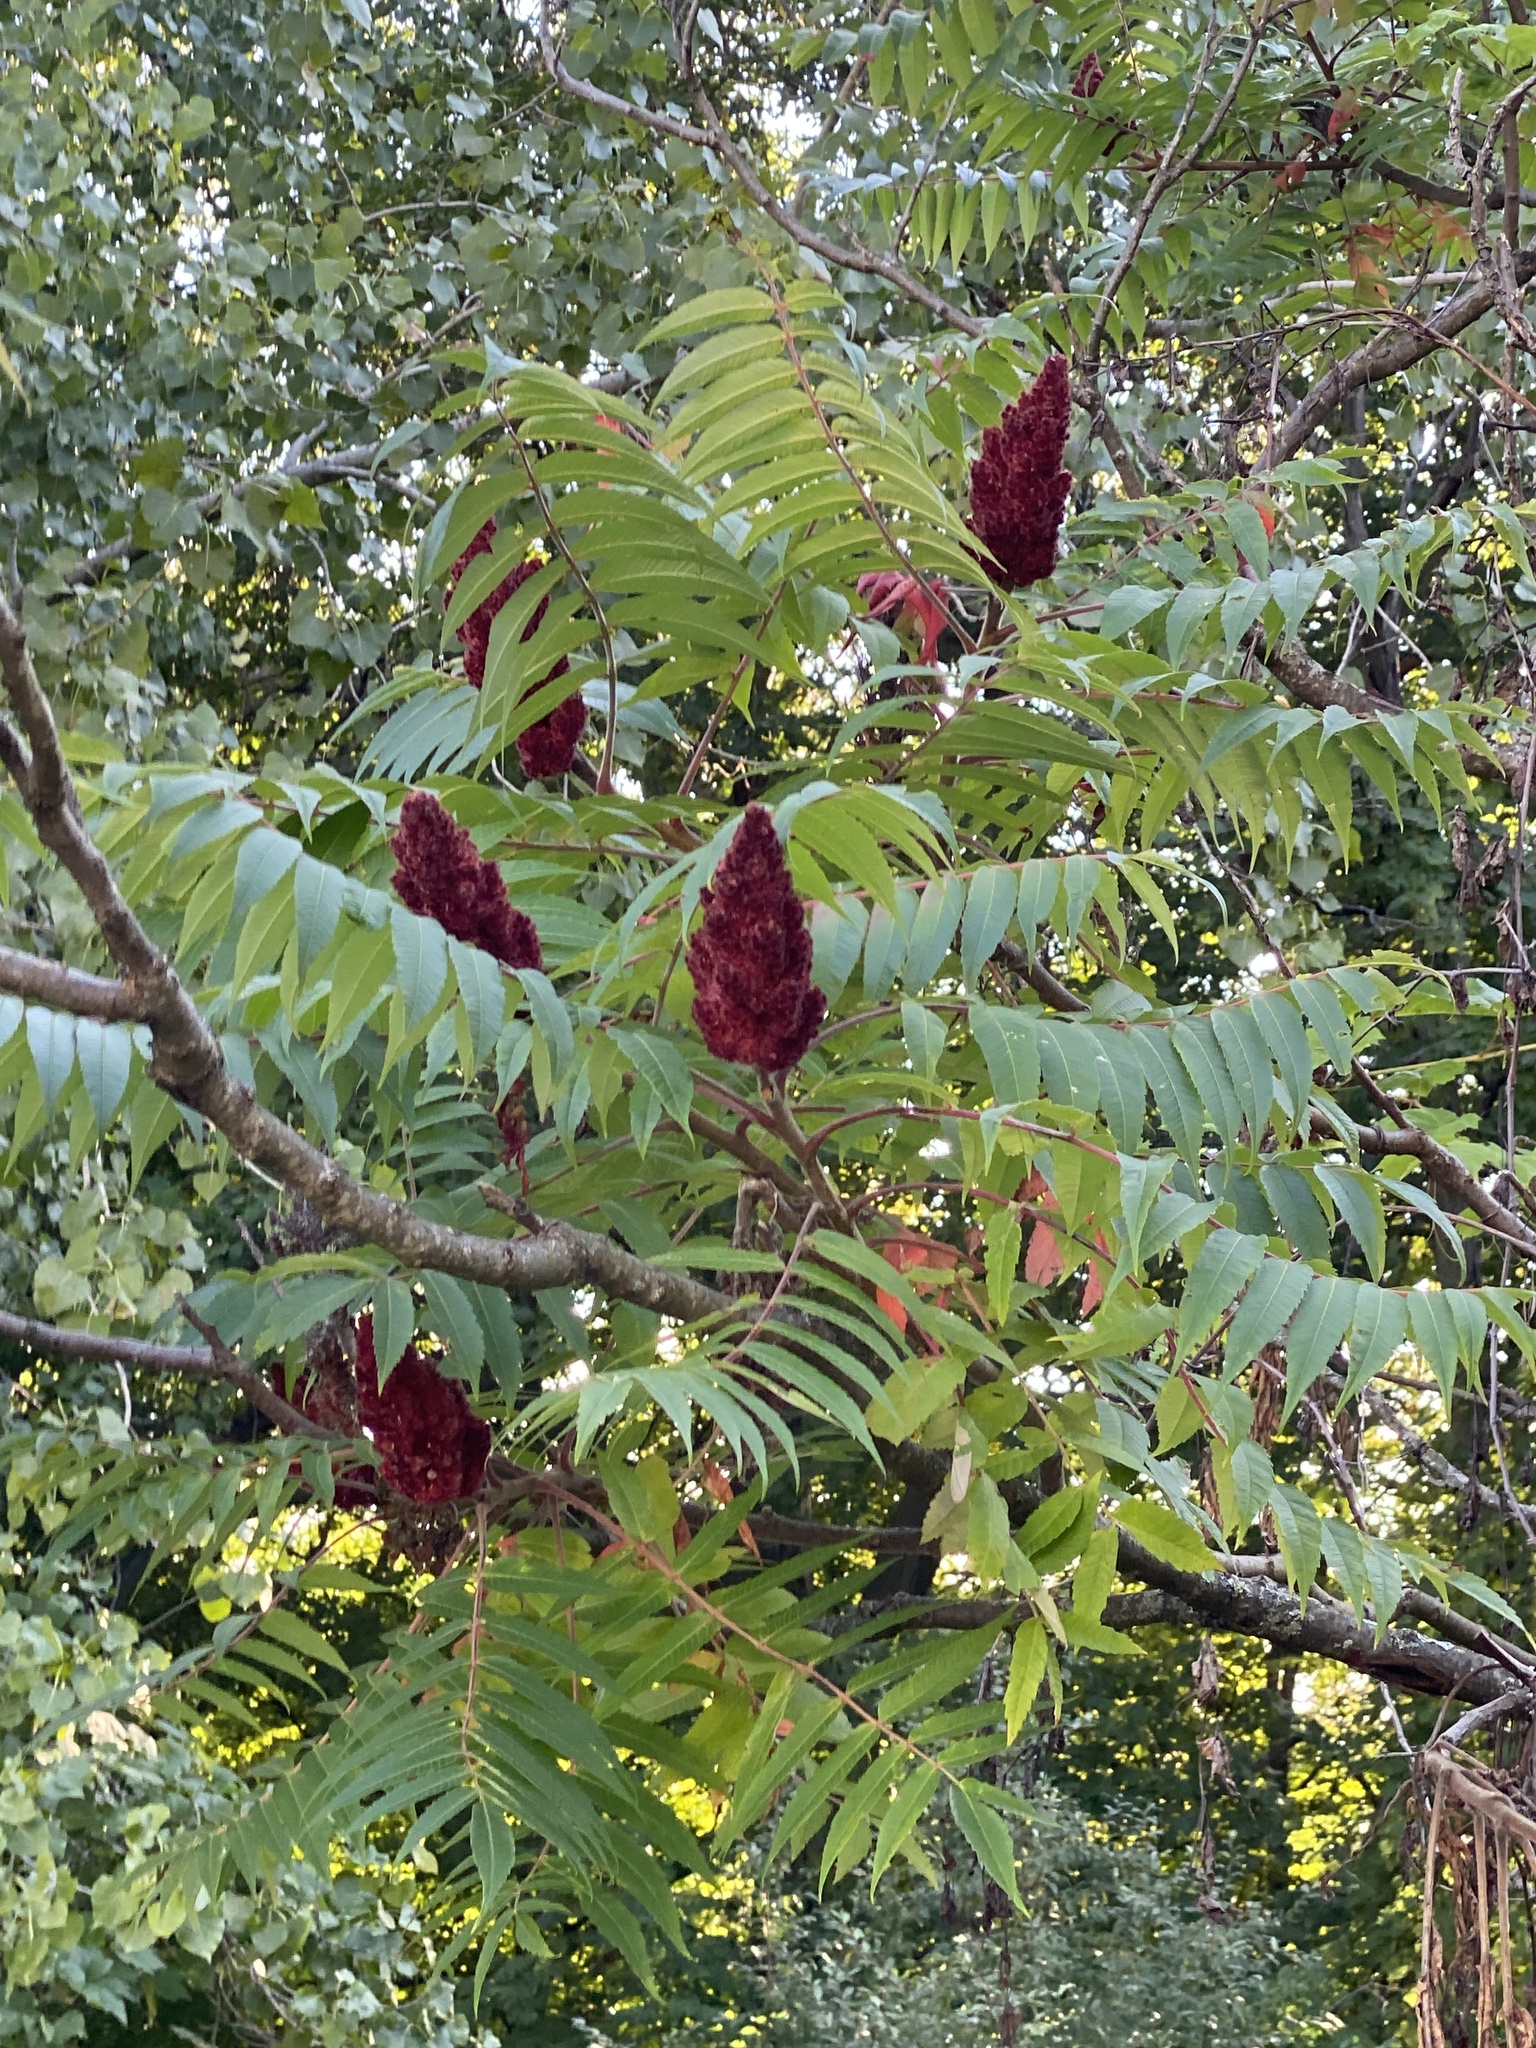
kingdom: Plantae
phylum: Tracheophyta
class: Magnoliopsida
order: Sapindales
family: Anacardiaceae
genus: Rhus
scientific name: Rhus typhina
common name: Staghorn sumac
